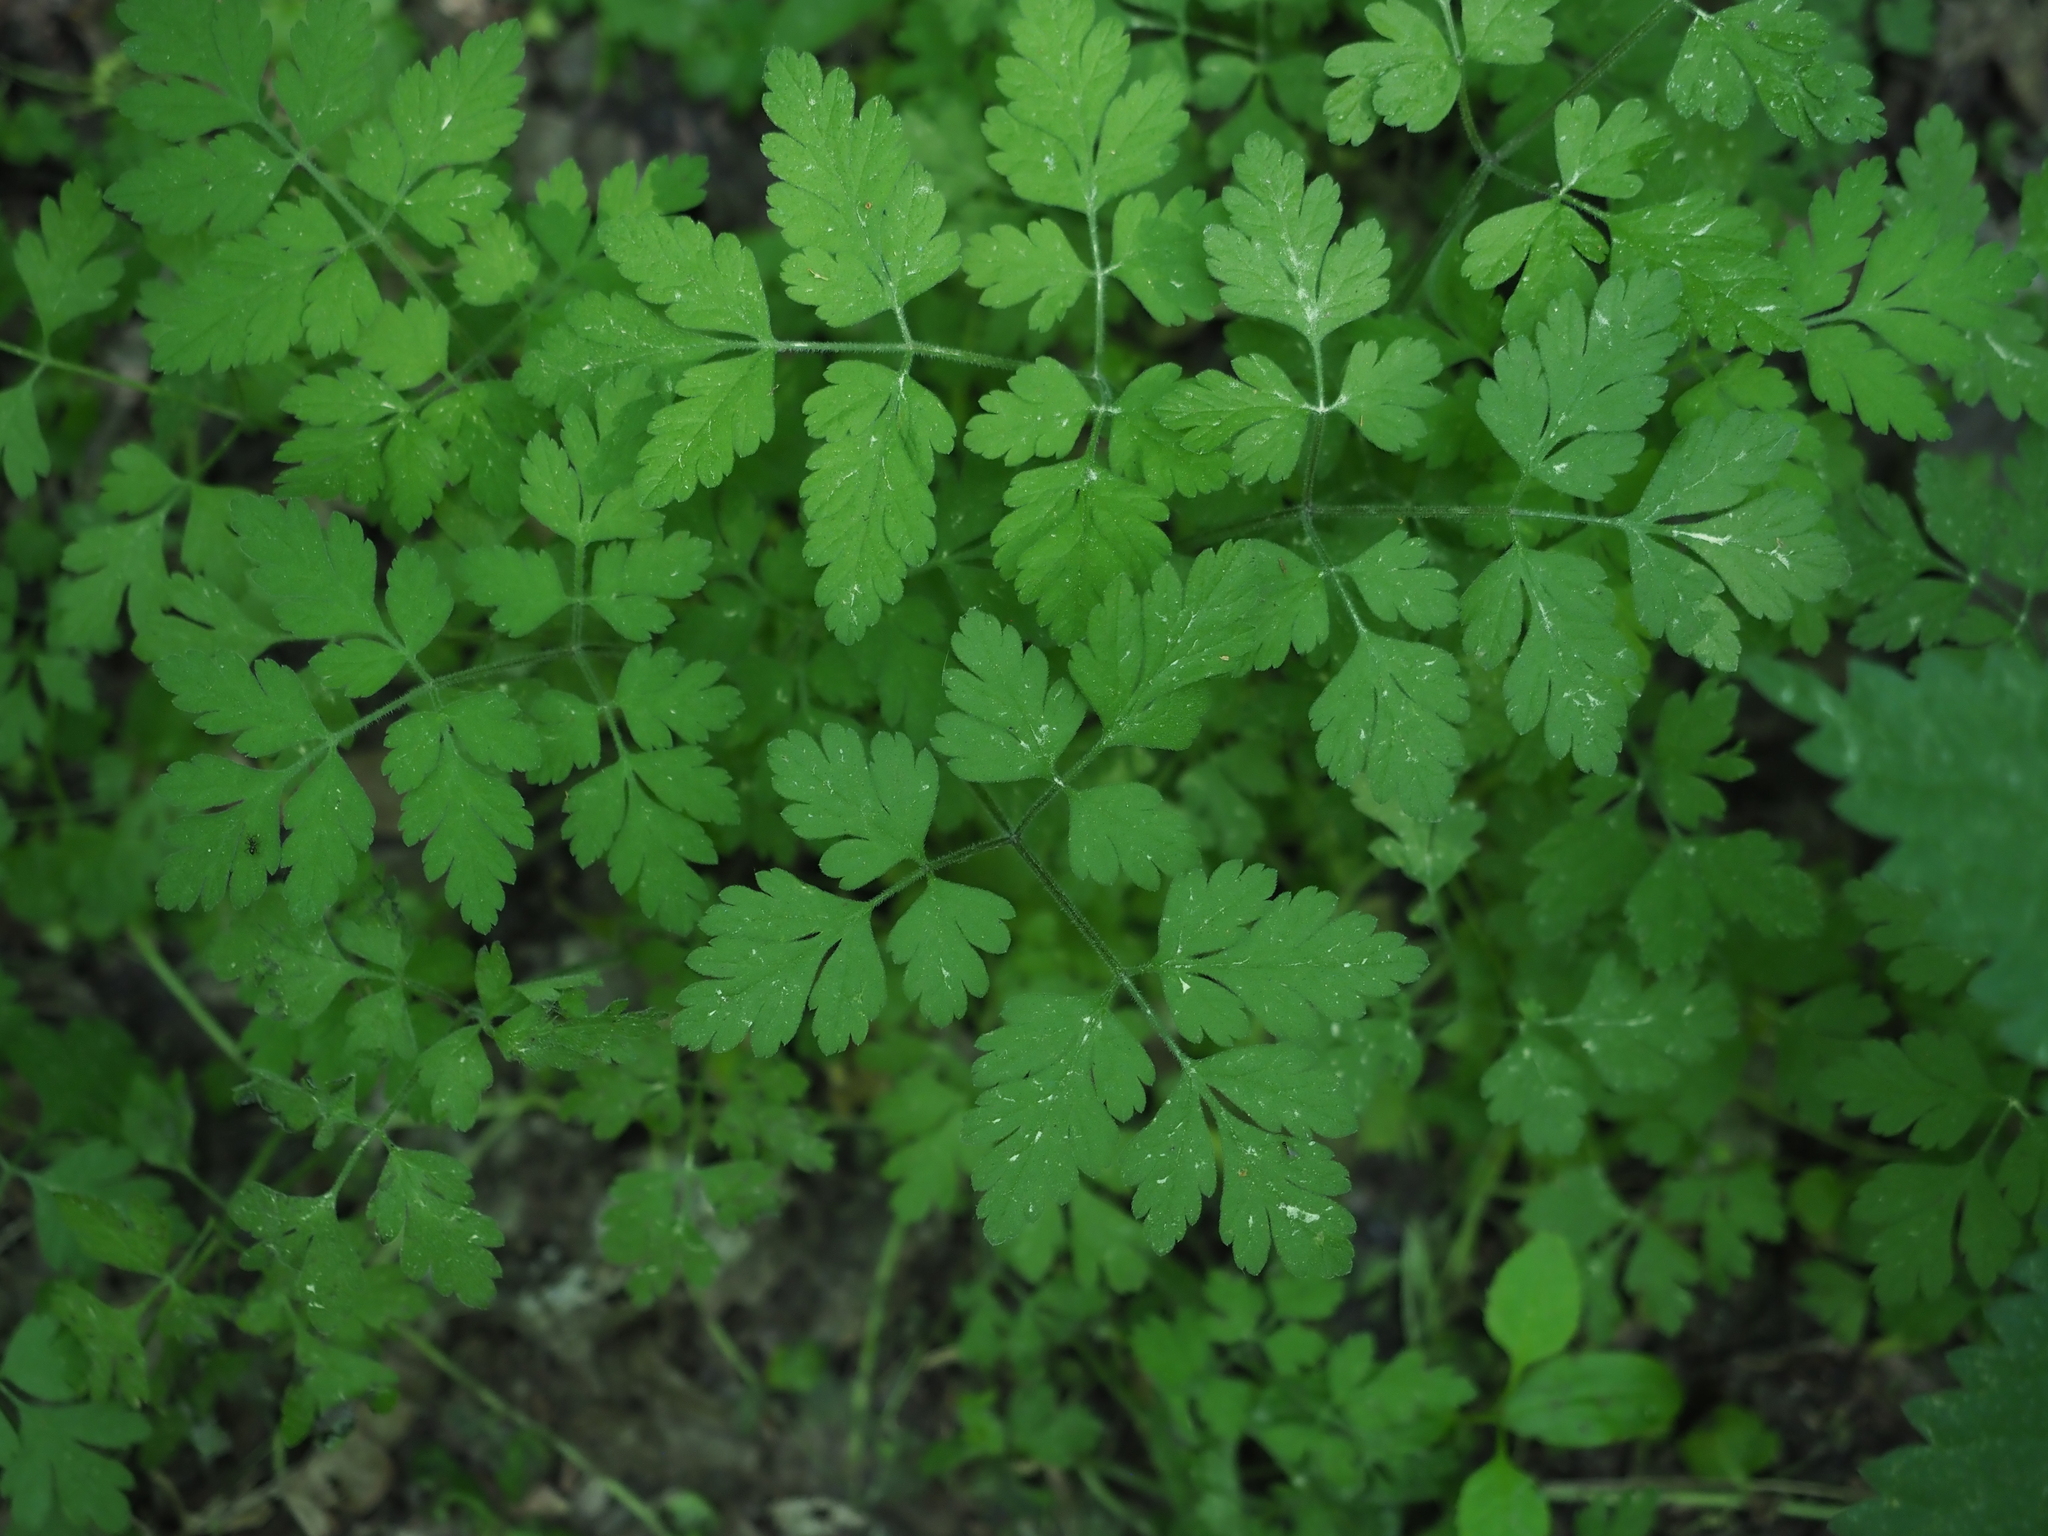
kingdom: Plantae
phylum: Tracheophyta
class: Magnoliopsida
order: Apiales
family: Apiaceae
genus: Chaerophyllum
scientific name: Chaerophyllum temulum
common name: Rough chervil
